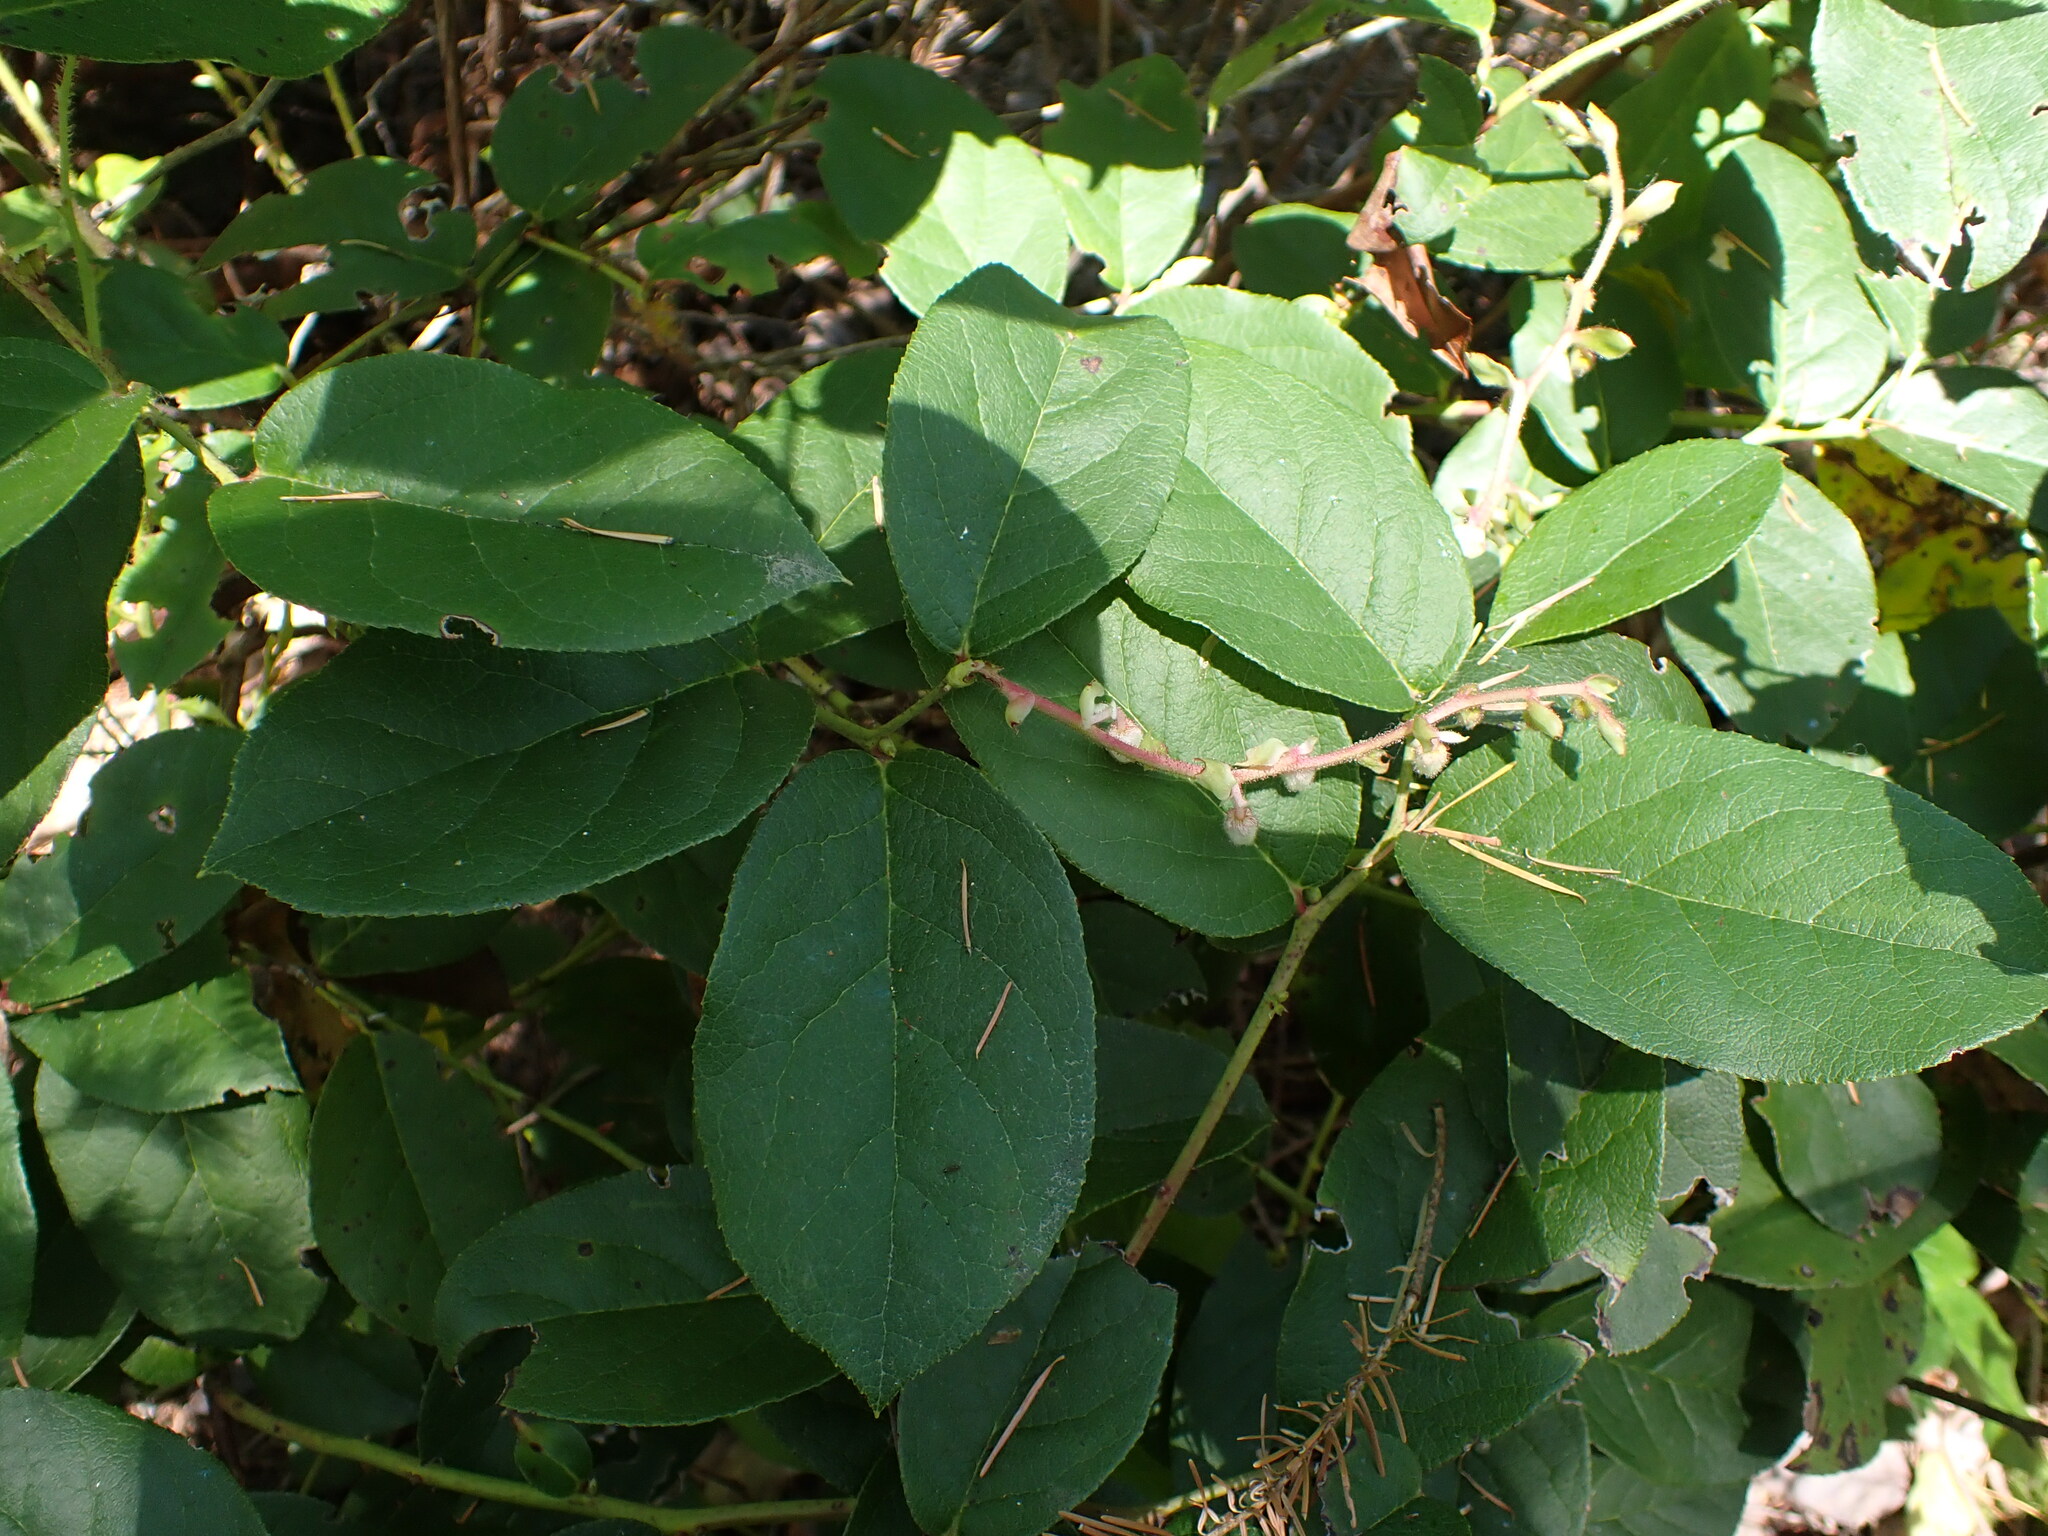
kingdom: Plantae
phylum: Tracheophyta
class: Magnoliopsida
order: Ericales
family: Ericaceae
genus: Gaultheria
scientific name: Gaultheria shallon
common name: Shallon
